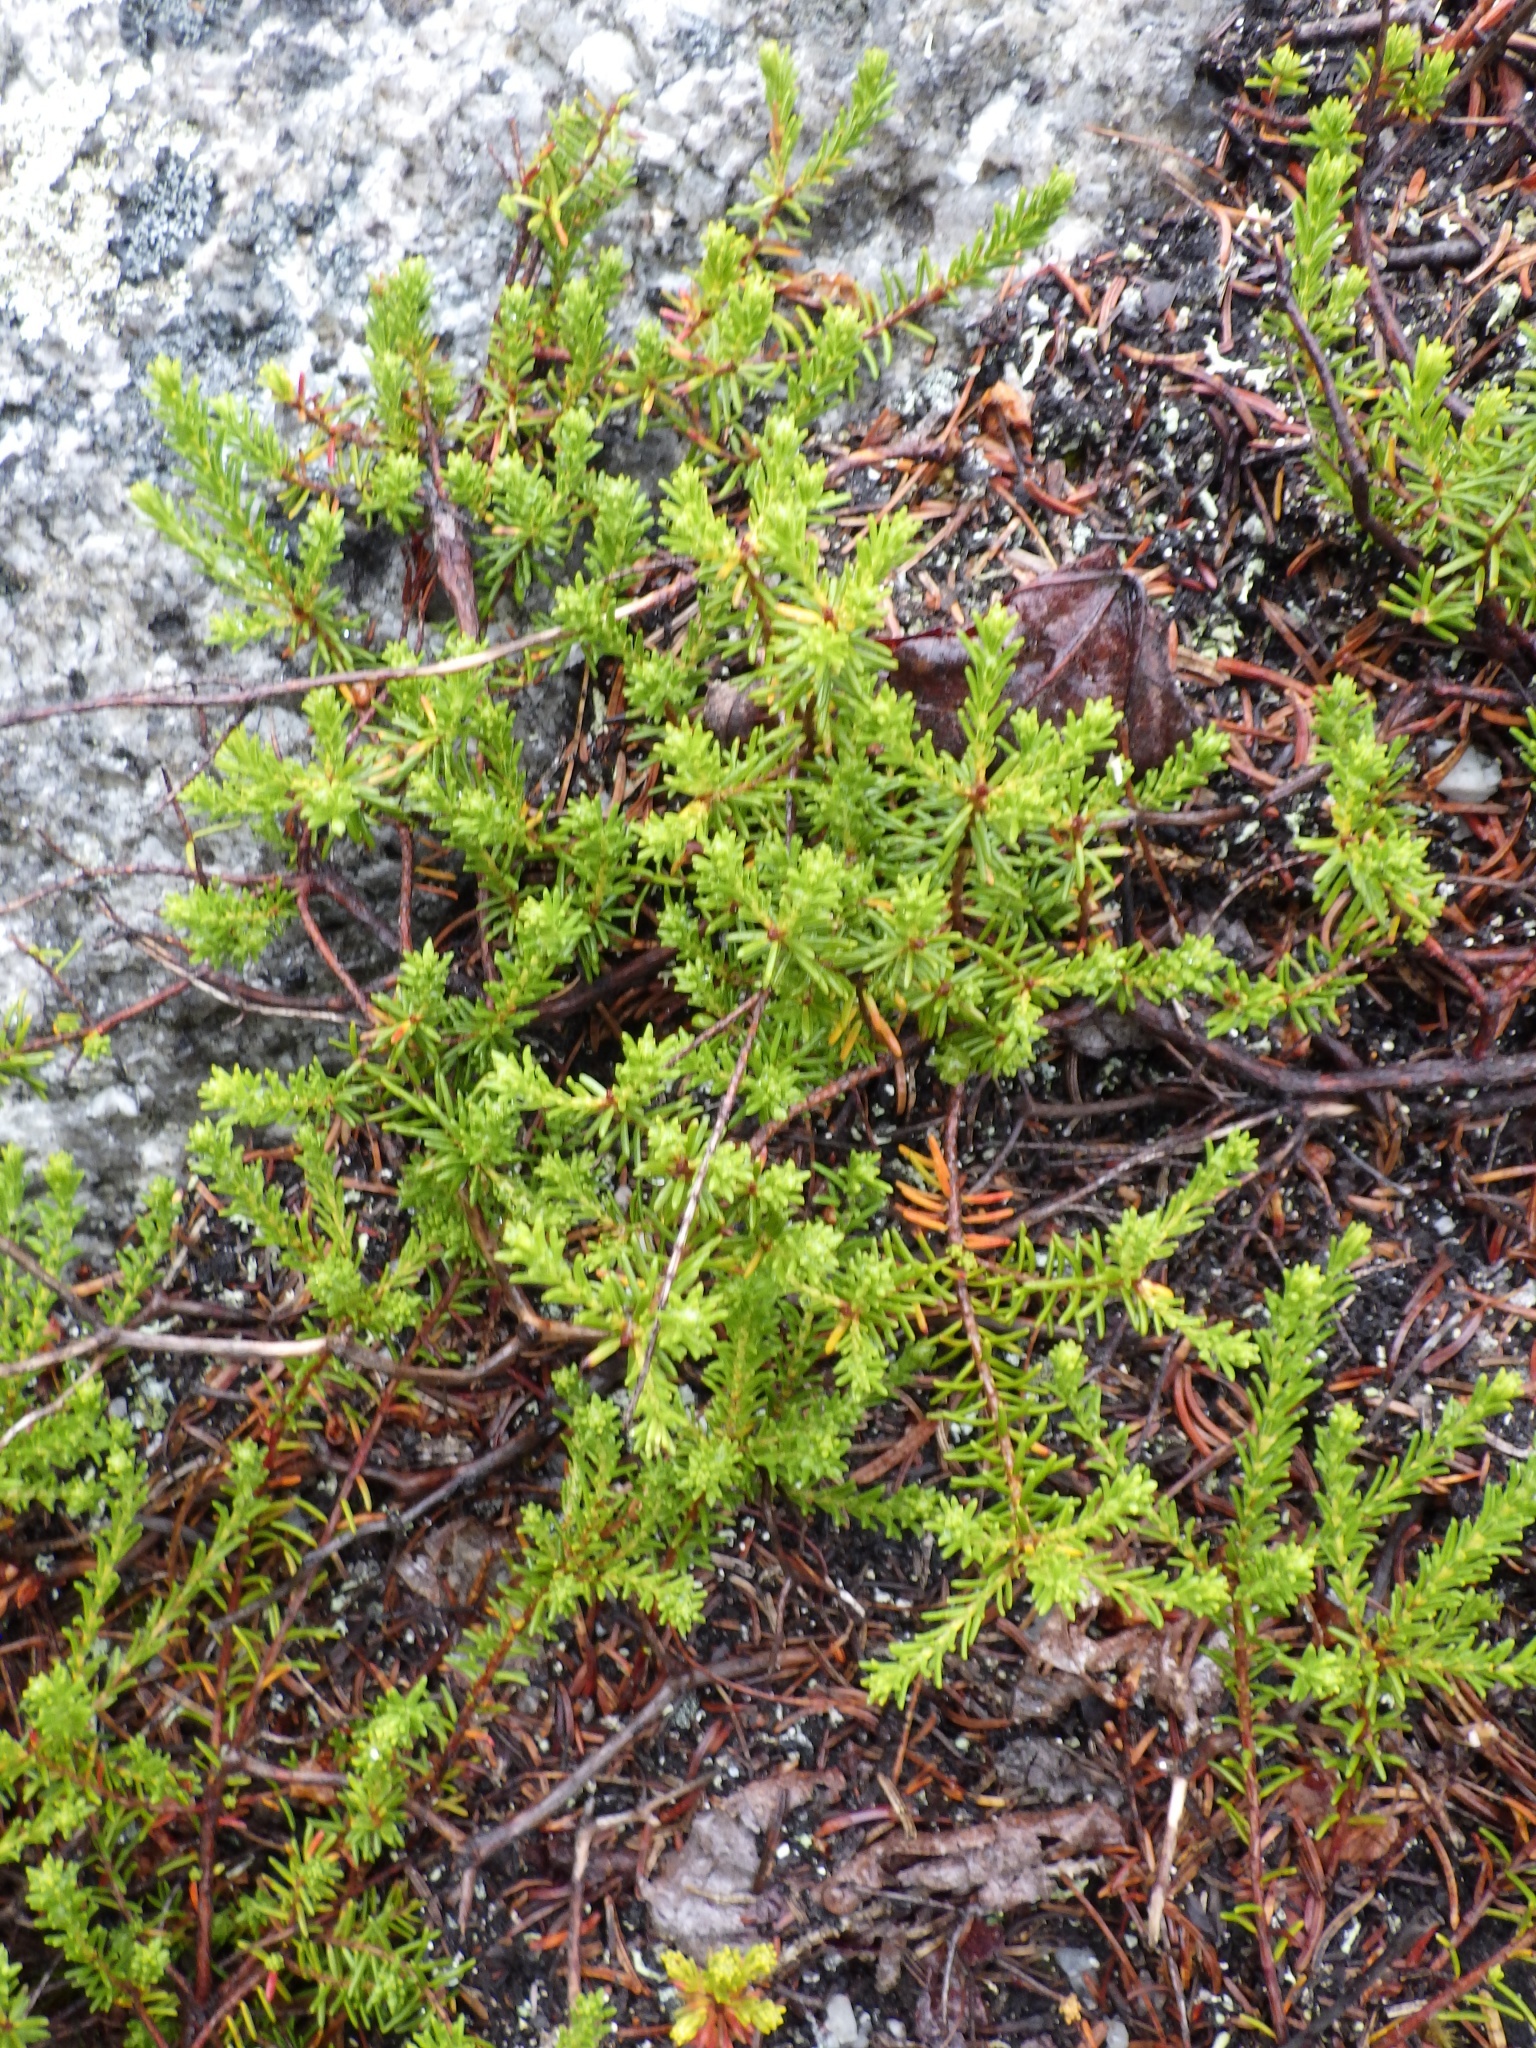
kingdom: Plantae
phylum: Tracheophyta
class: Magnoliopsida
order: Ericales
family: Ericaceae
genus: Corema
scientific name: Corema conradii
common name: Broom-crowberry
